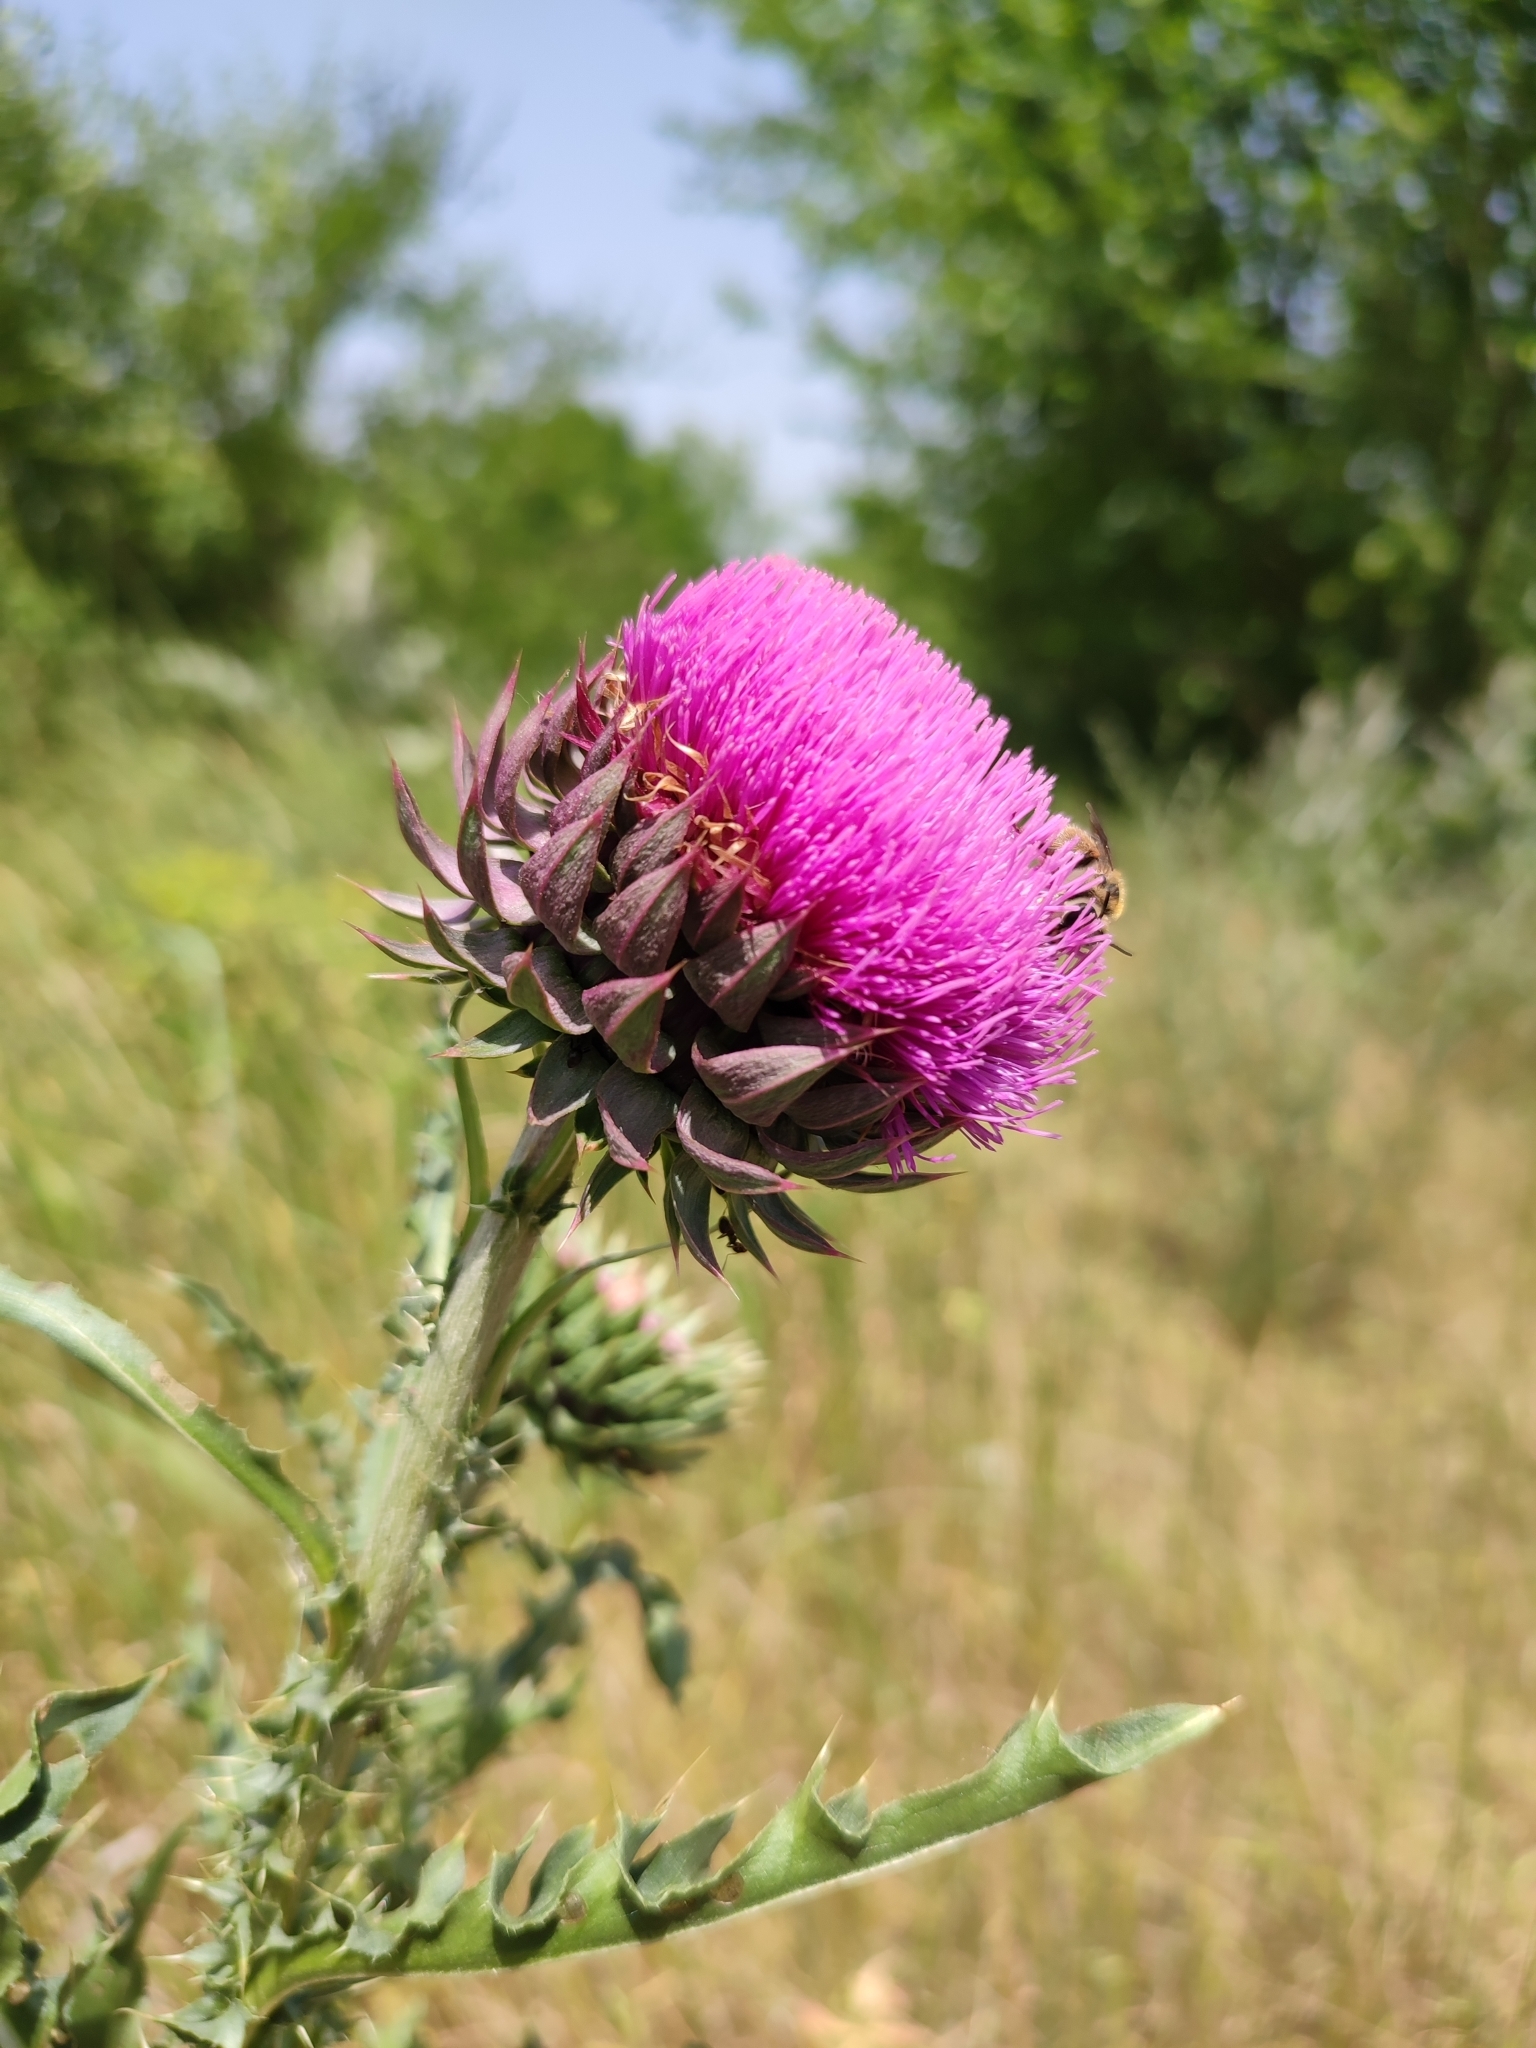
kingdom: Plantae
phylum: Tracheophyta
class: Magnoliopsida
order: Asterales
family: Asteraceae
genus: Carduus
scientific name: Carduus nutans
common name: Musk thistle
